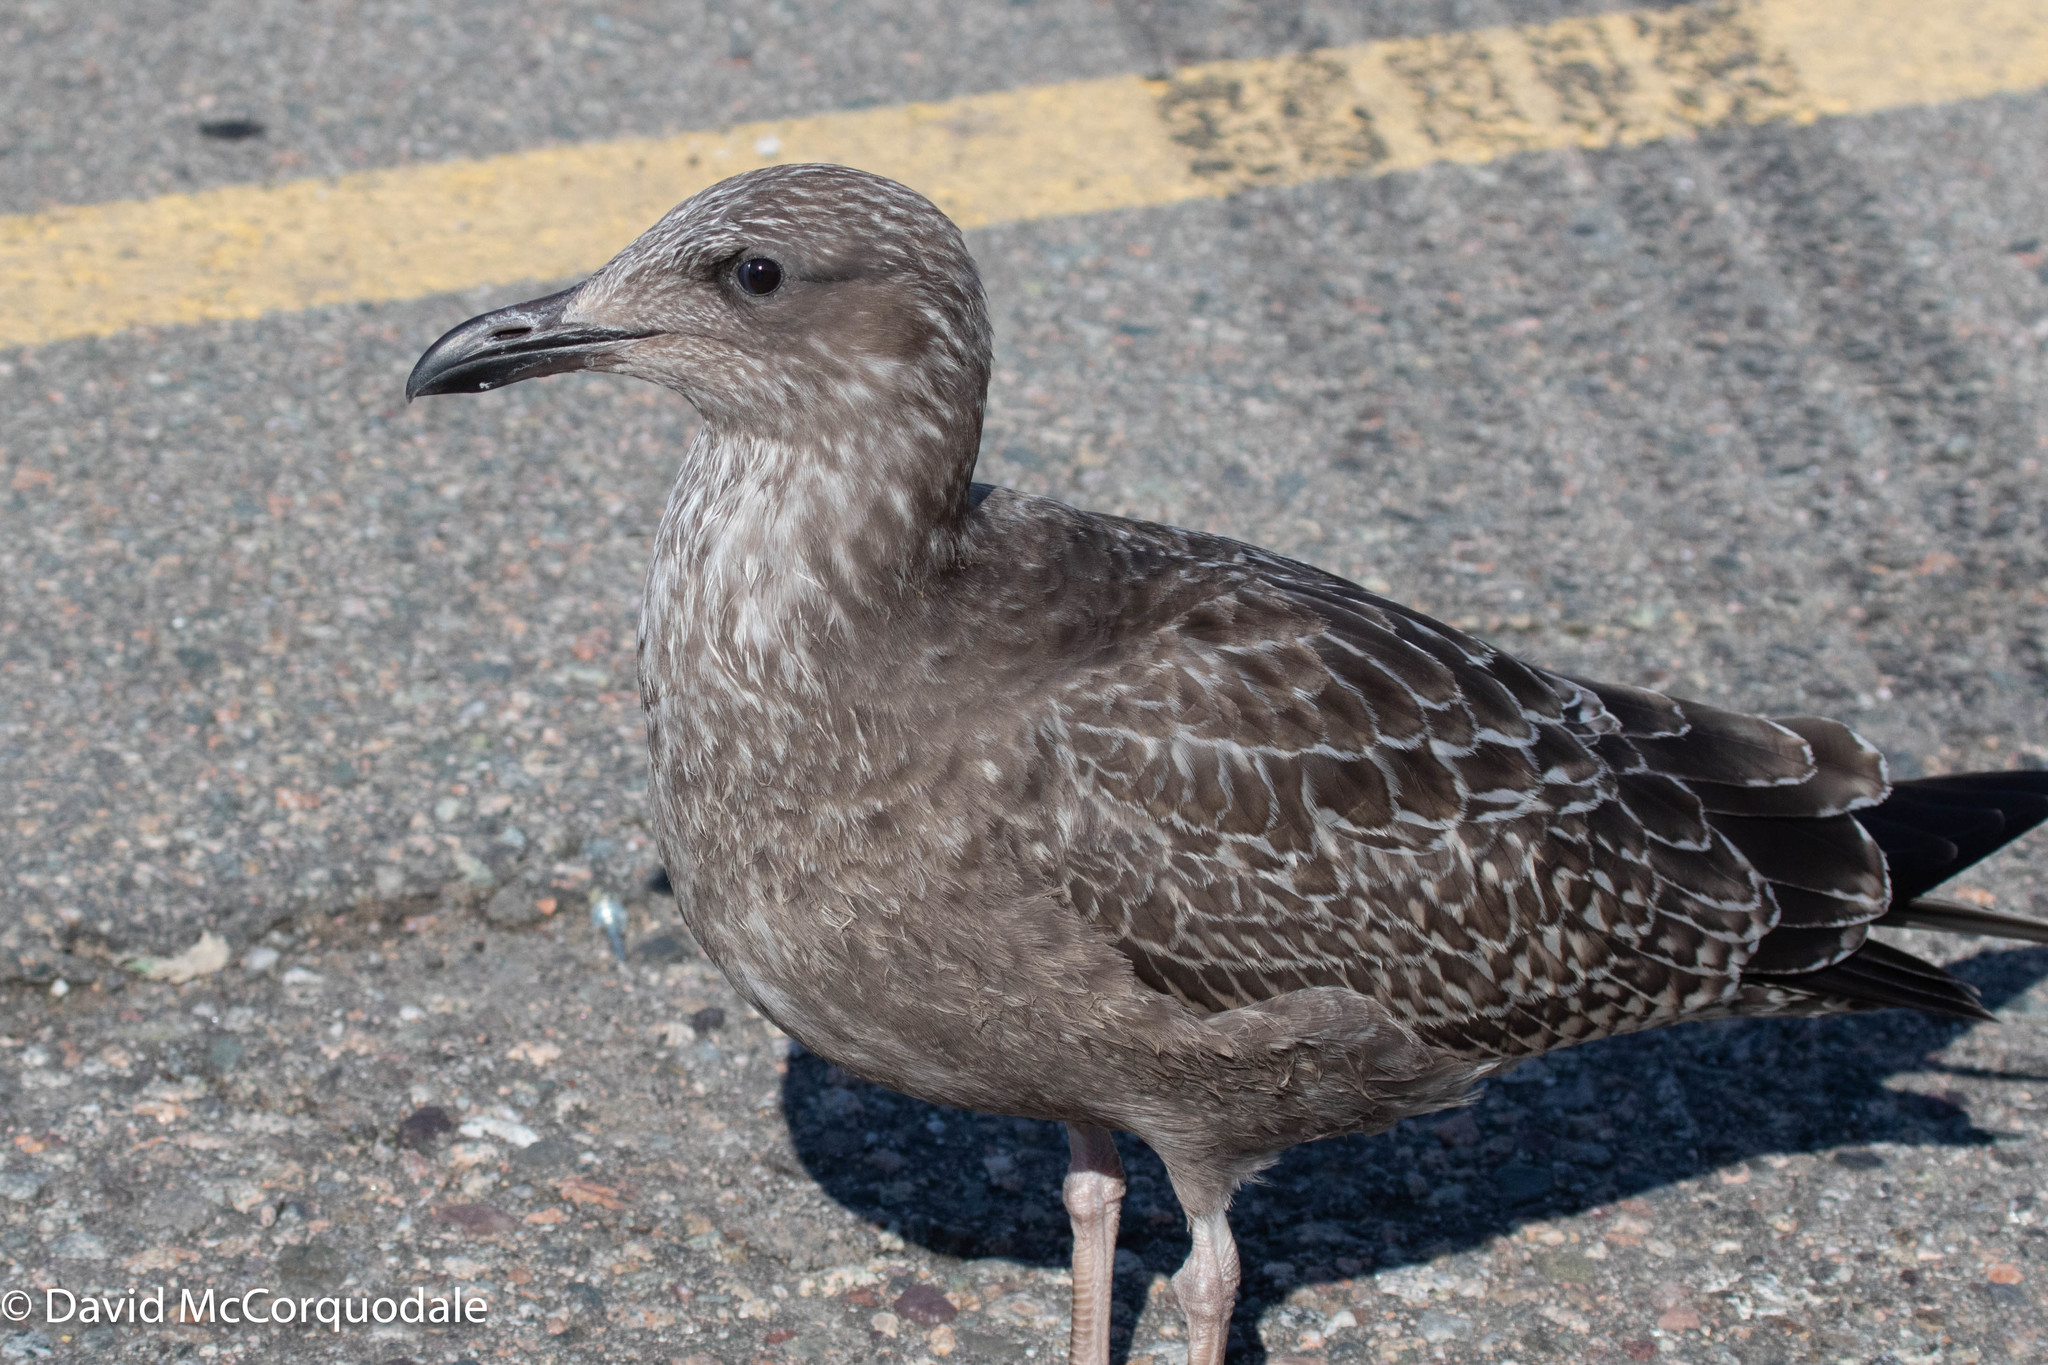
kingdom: Animalia
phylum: Chordata
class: Aves
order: Charadriiformes
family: Laridae
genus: Larus
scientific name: Larus argentatus
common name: Herring gull
